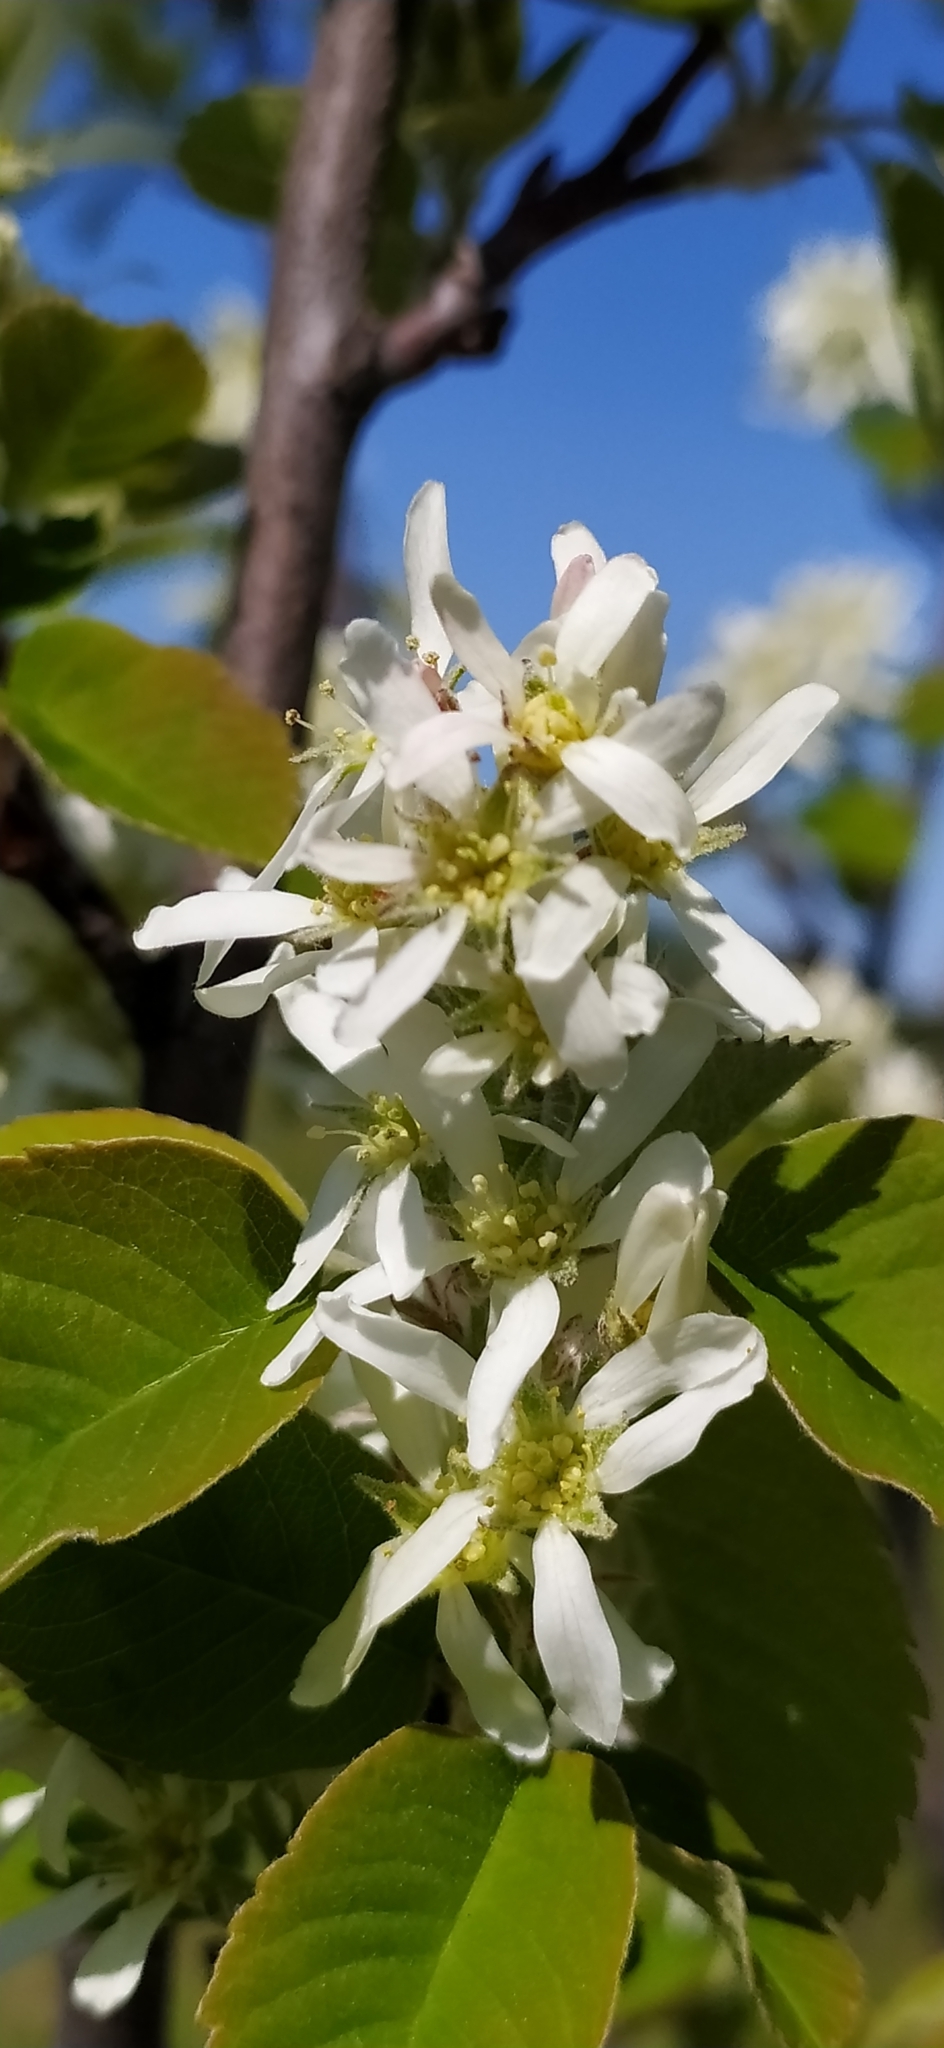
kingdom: Plantae
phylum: Tracheophyta
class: Magnoliopsida
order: Rosales
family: Rosaceae
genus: Amelanchier
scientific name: Amelanchier alnifolia
